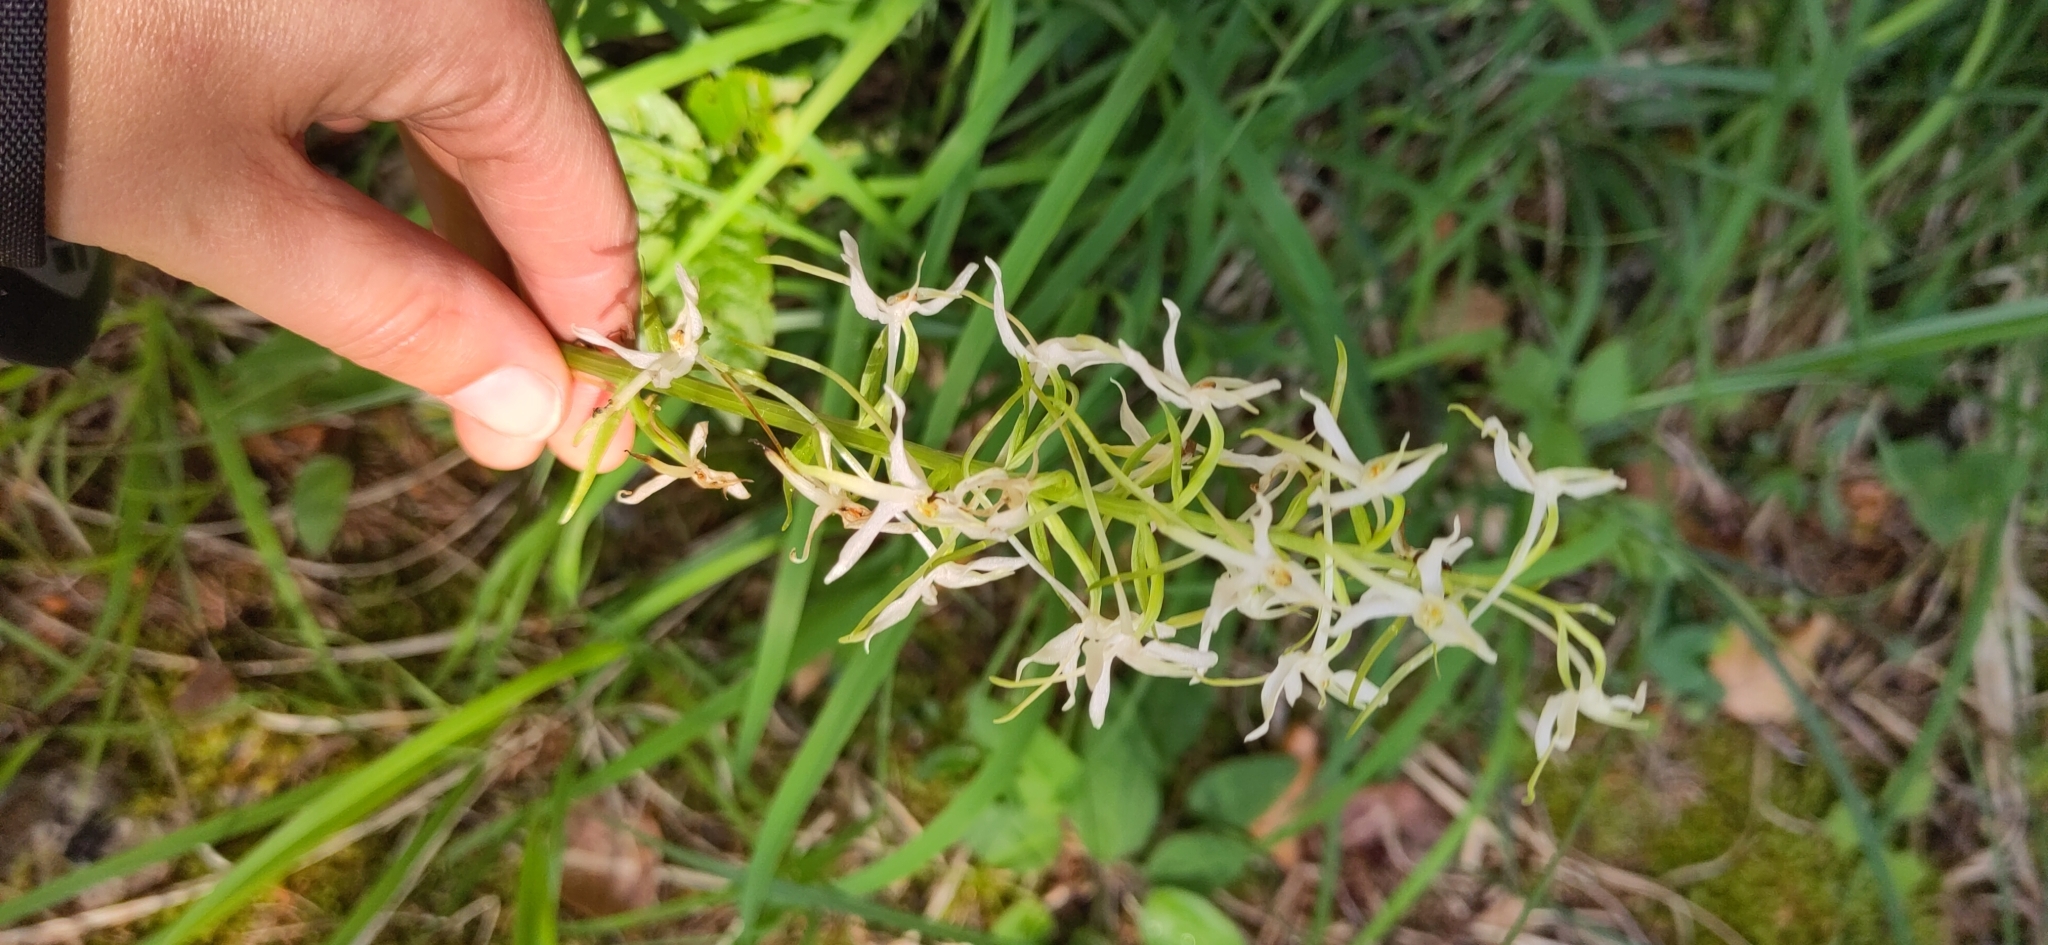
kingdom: Plantae
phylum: Tracheophyta
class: Liliopsida
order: Asparagales
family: Orchidaceae
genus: Platanthera
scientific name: Platanthera bifolia
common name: Lesser butterfly-orchid
